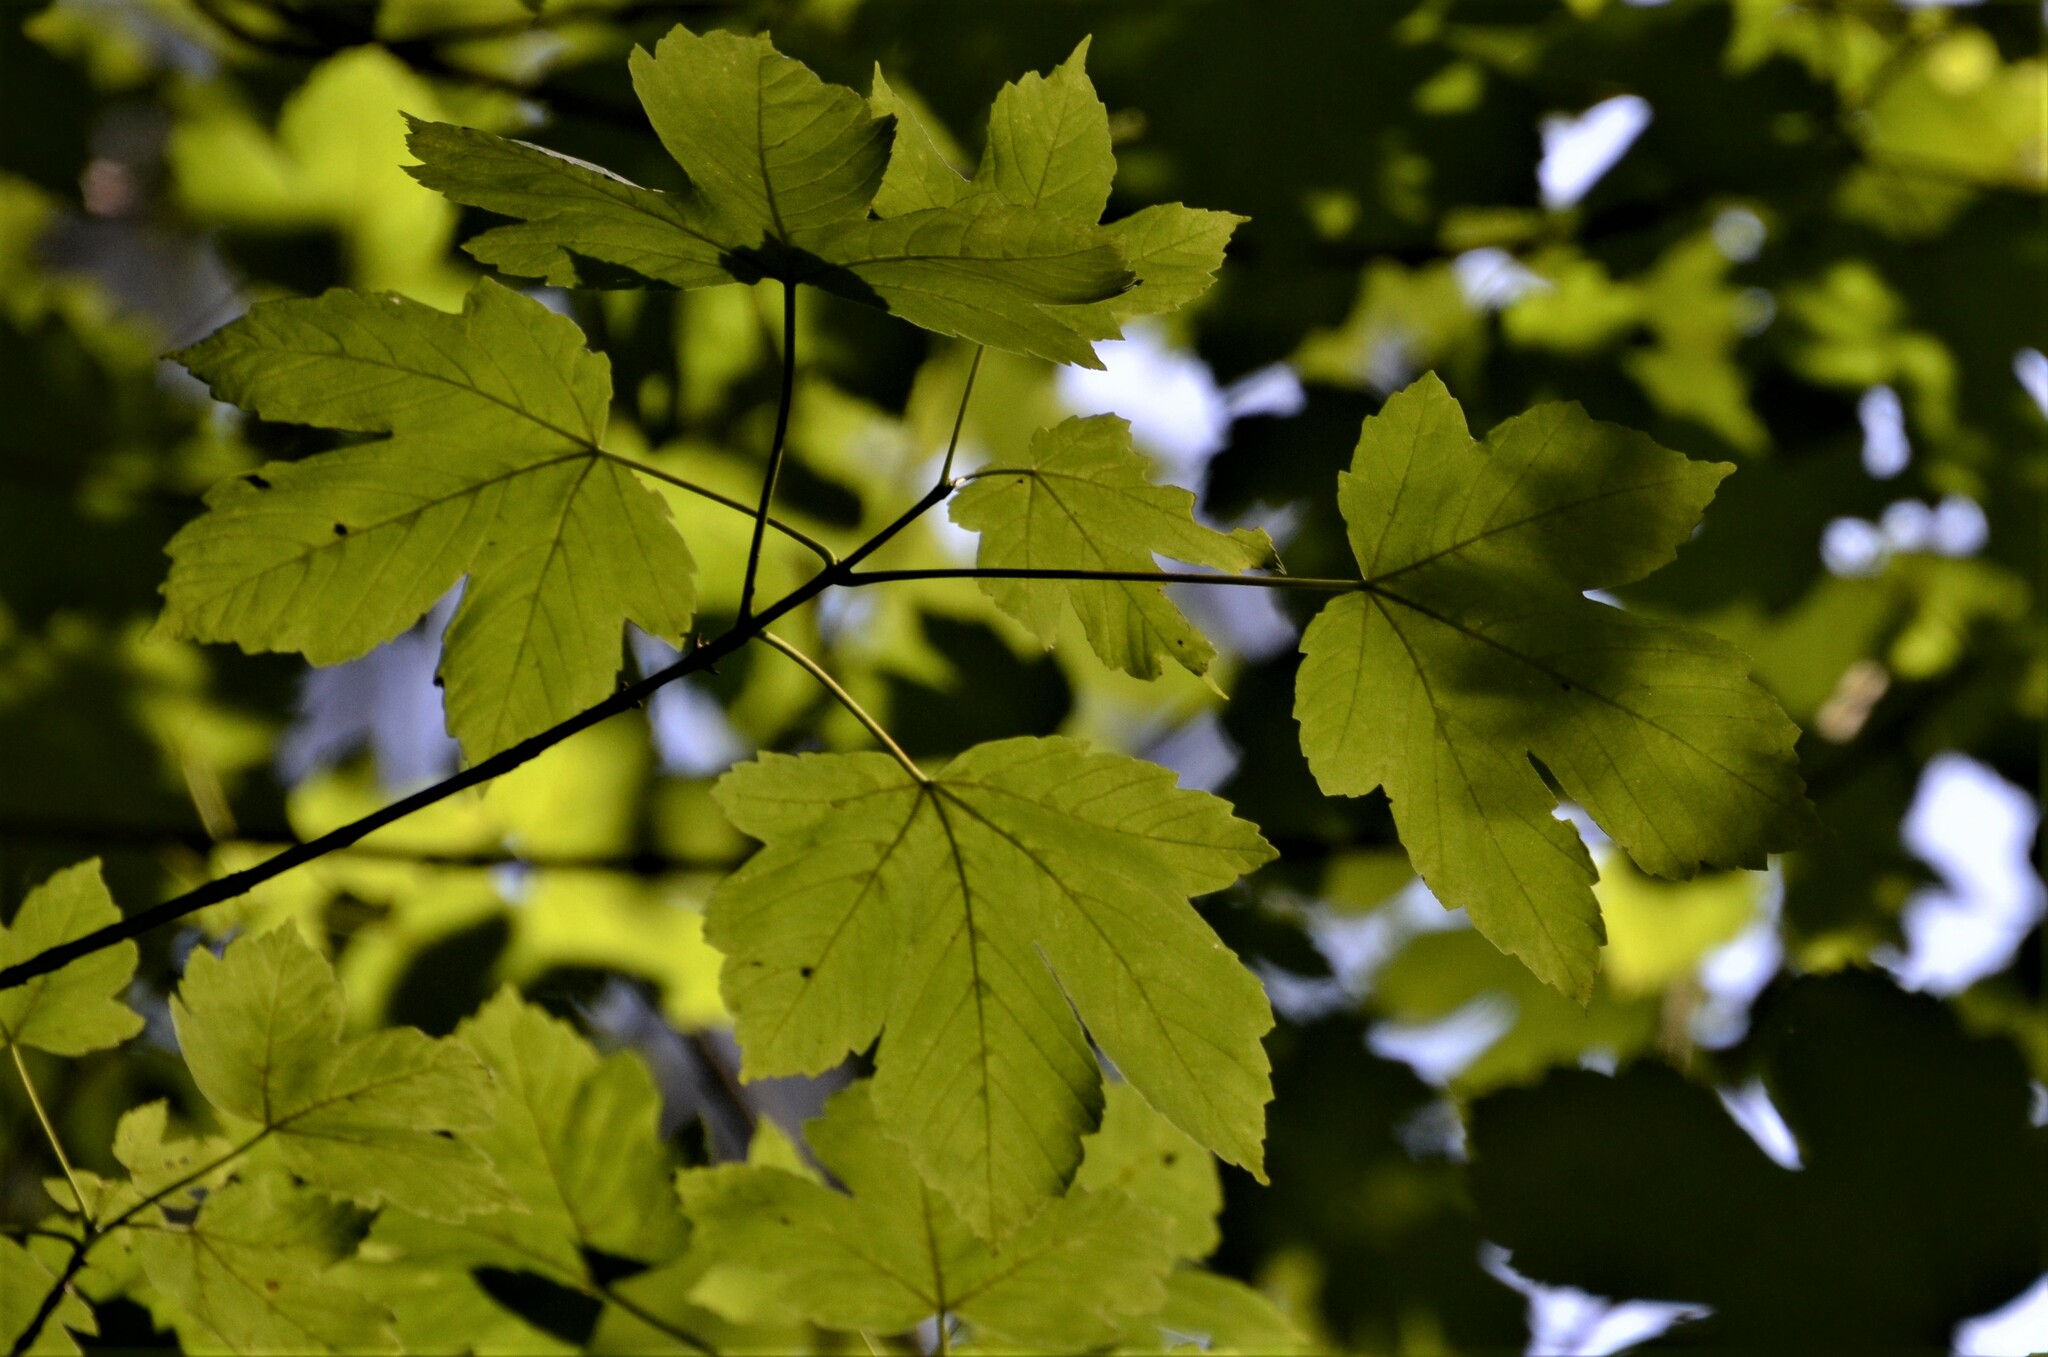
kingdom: Plantae
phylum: Tracheophyta
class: Magnoliopsida
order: Sapindales
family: Sapindaceae
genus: Acer
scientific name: Acer pseudoplatanus
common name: Sycamore
